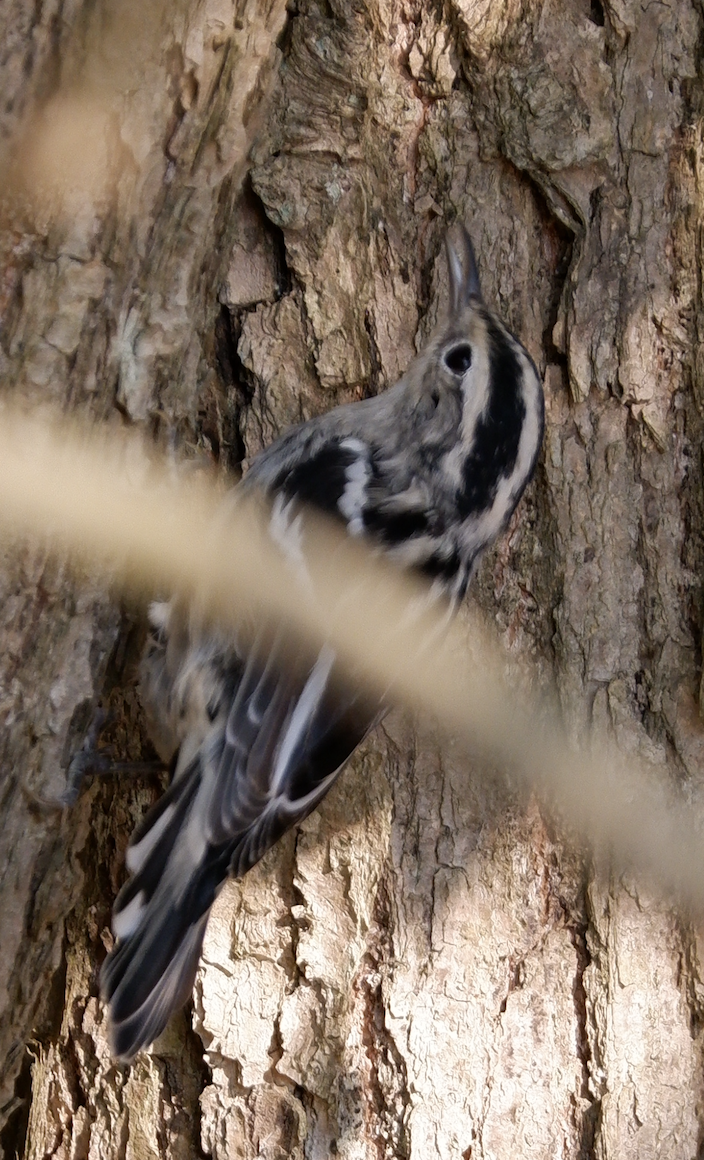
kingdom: Animalia
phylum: Chordata
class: Aves
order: Passeriformes
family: Parulidae
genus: Mniotilta
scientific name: Mniotilta varia
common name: Black-and-white warbler
